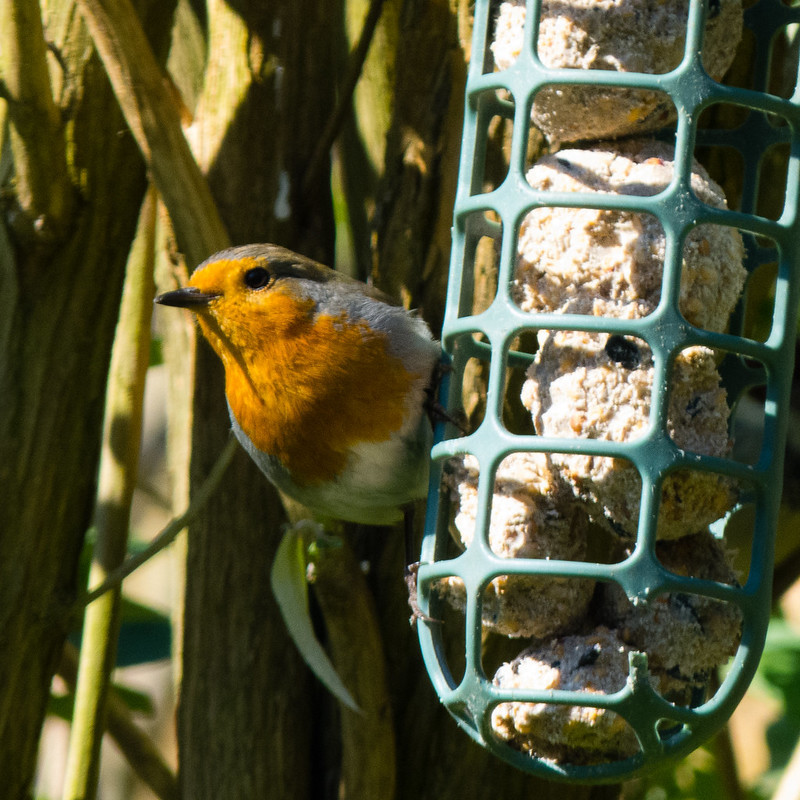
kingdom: Animalia
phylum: Chordata
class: Aves
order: Passeriformes
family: Muscicapidae
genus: Erithacus
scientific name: Erithacus rubecula
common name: European robin
